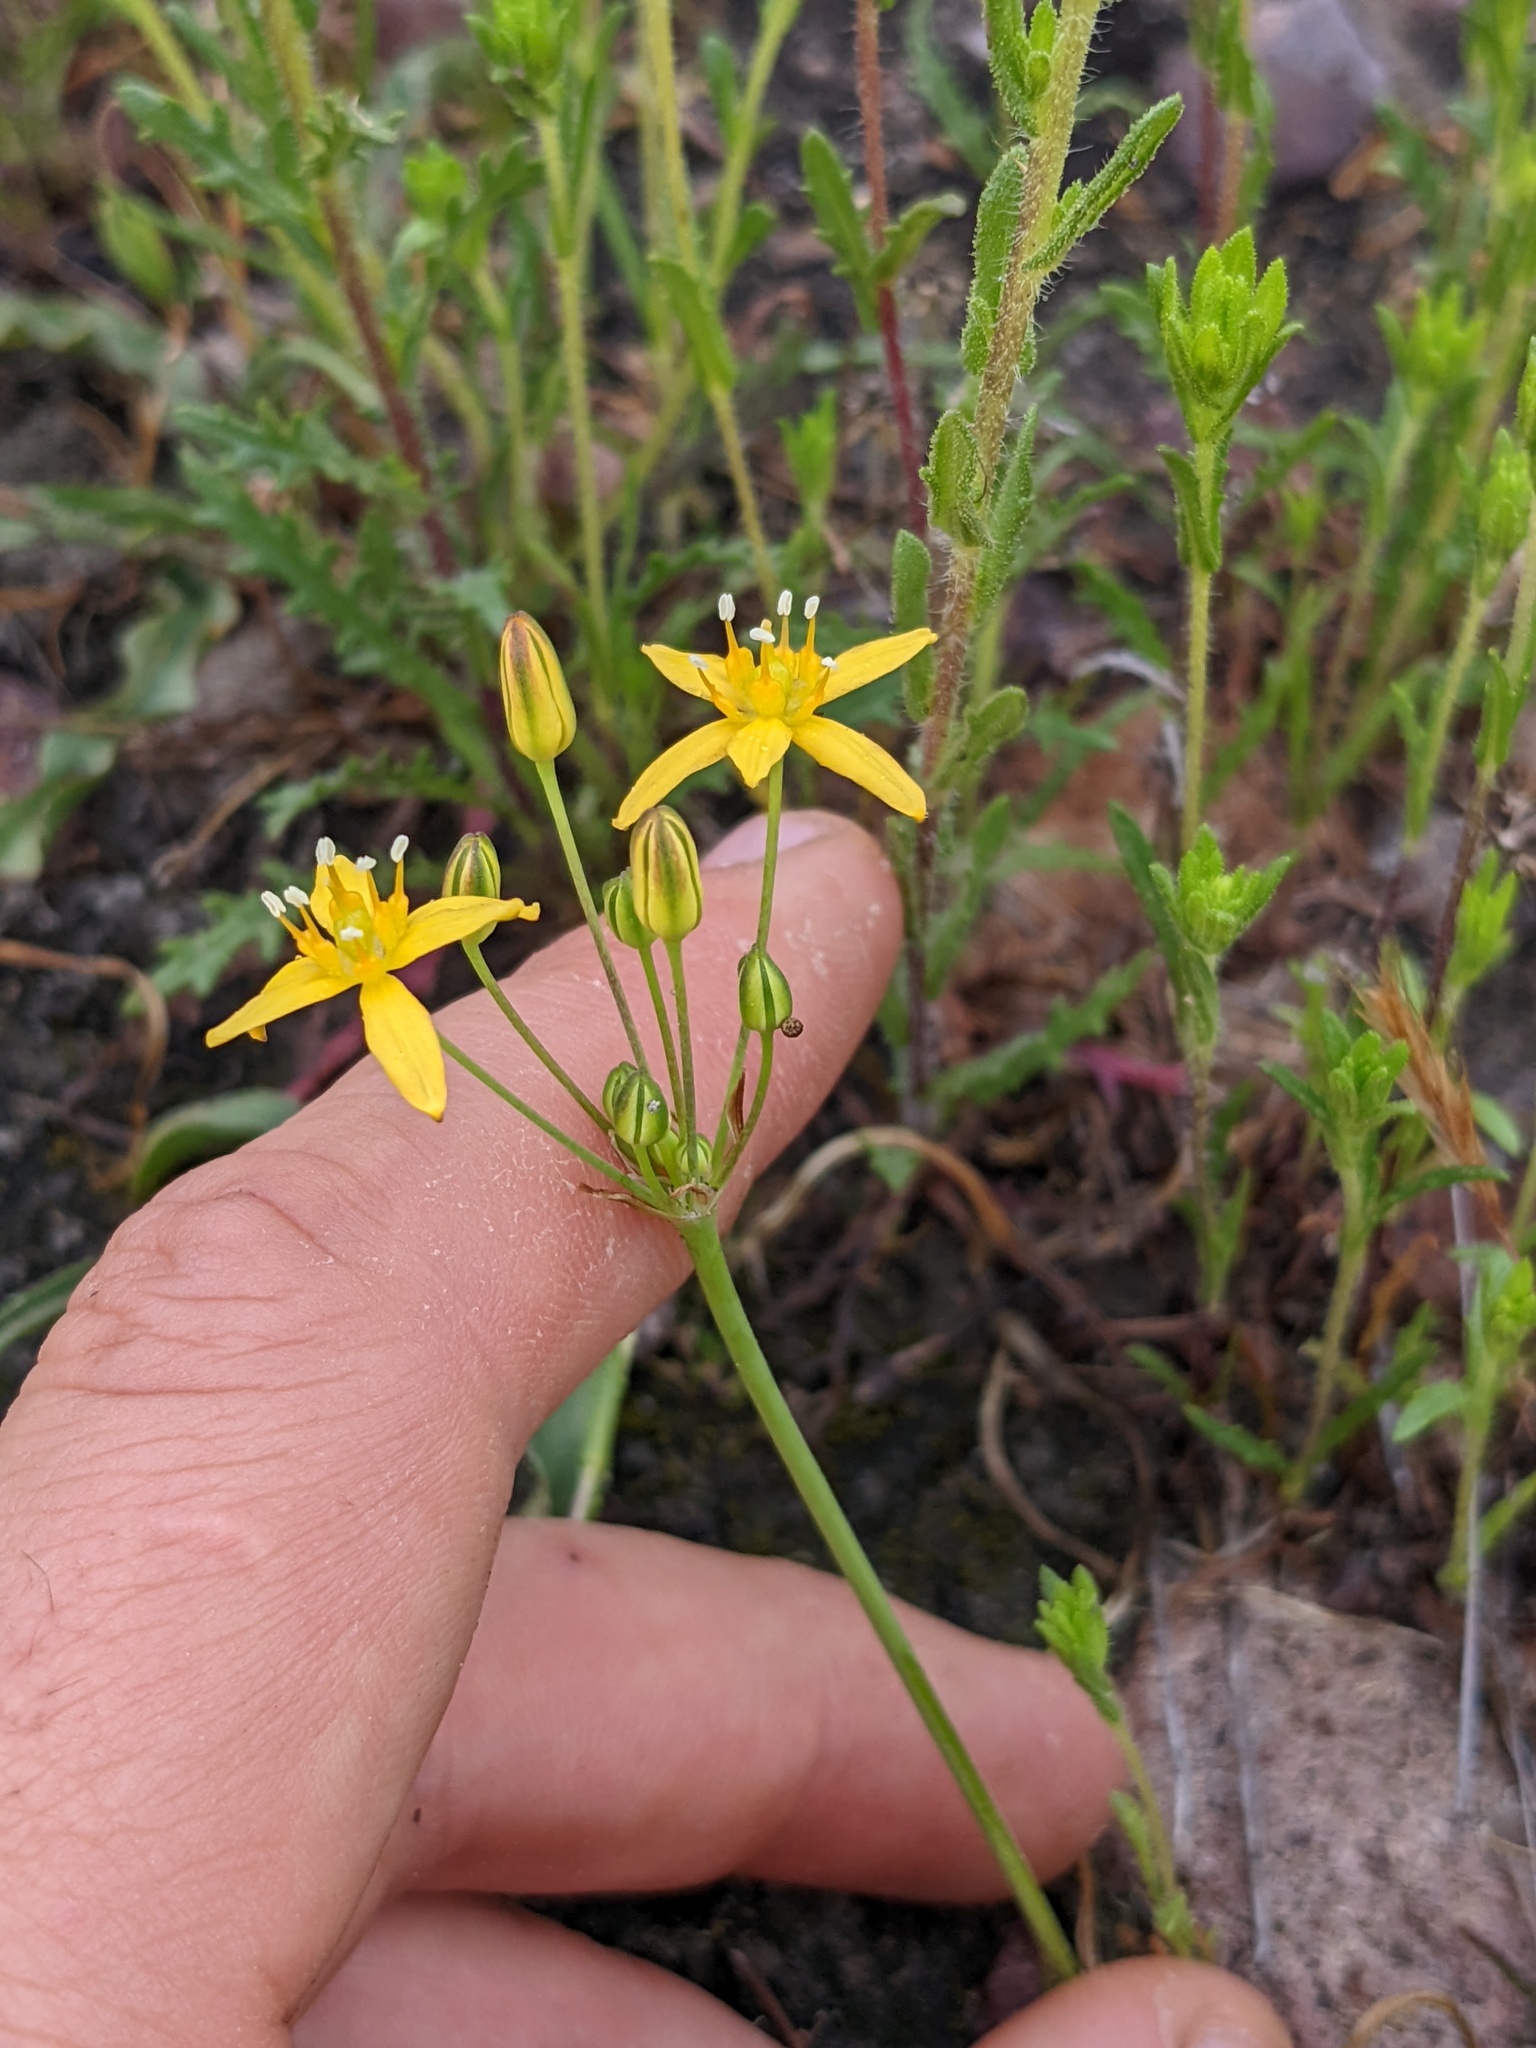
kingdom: Plantae
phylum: Tracheophyta
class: Liliopsida
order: Asparagales
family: Asparagaceae
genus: Bloomeria
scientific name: Bloomeria clevelandii
